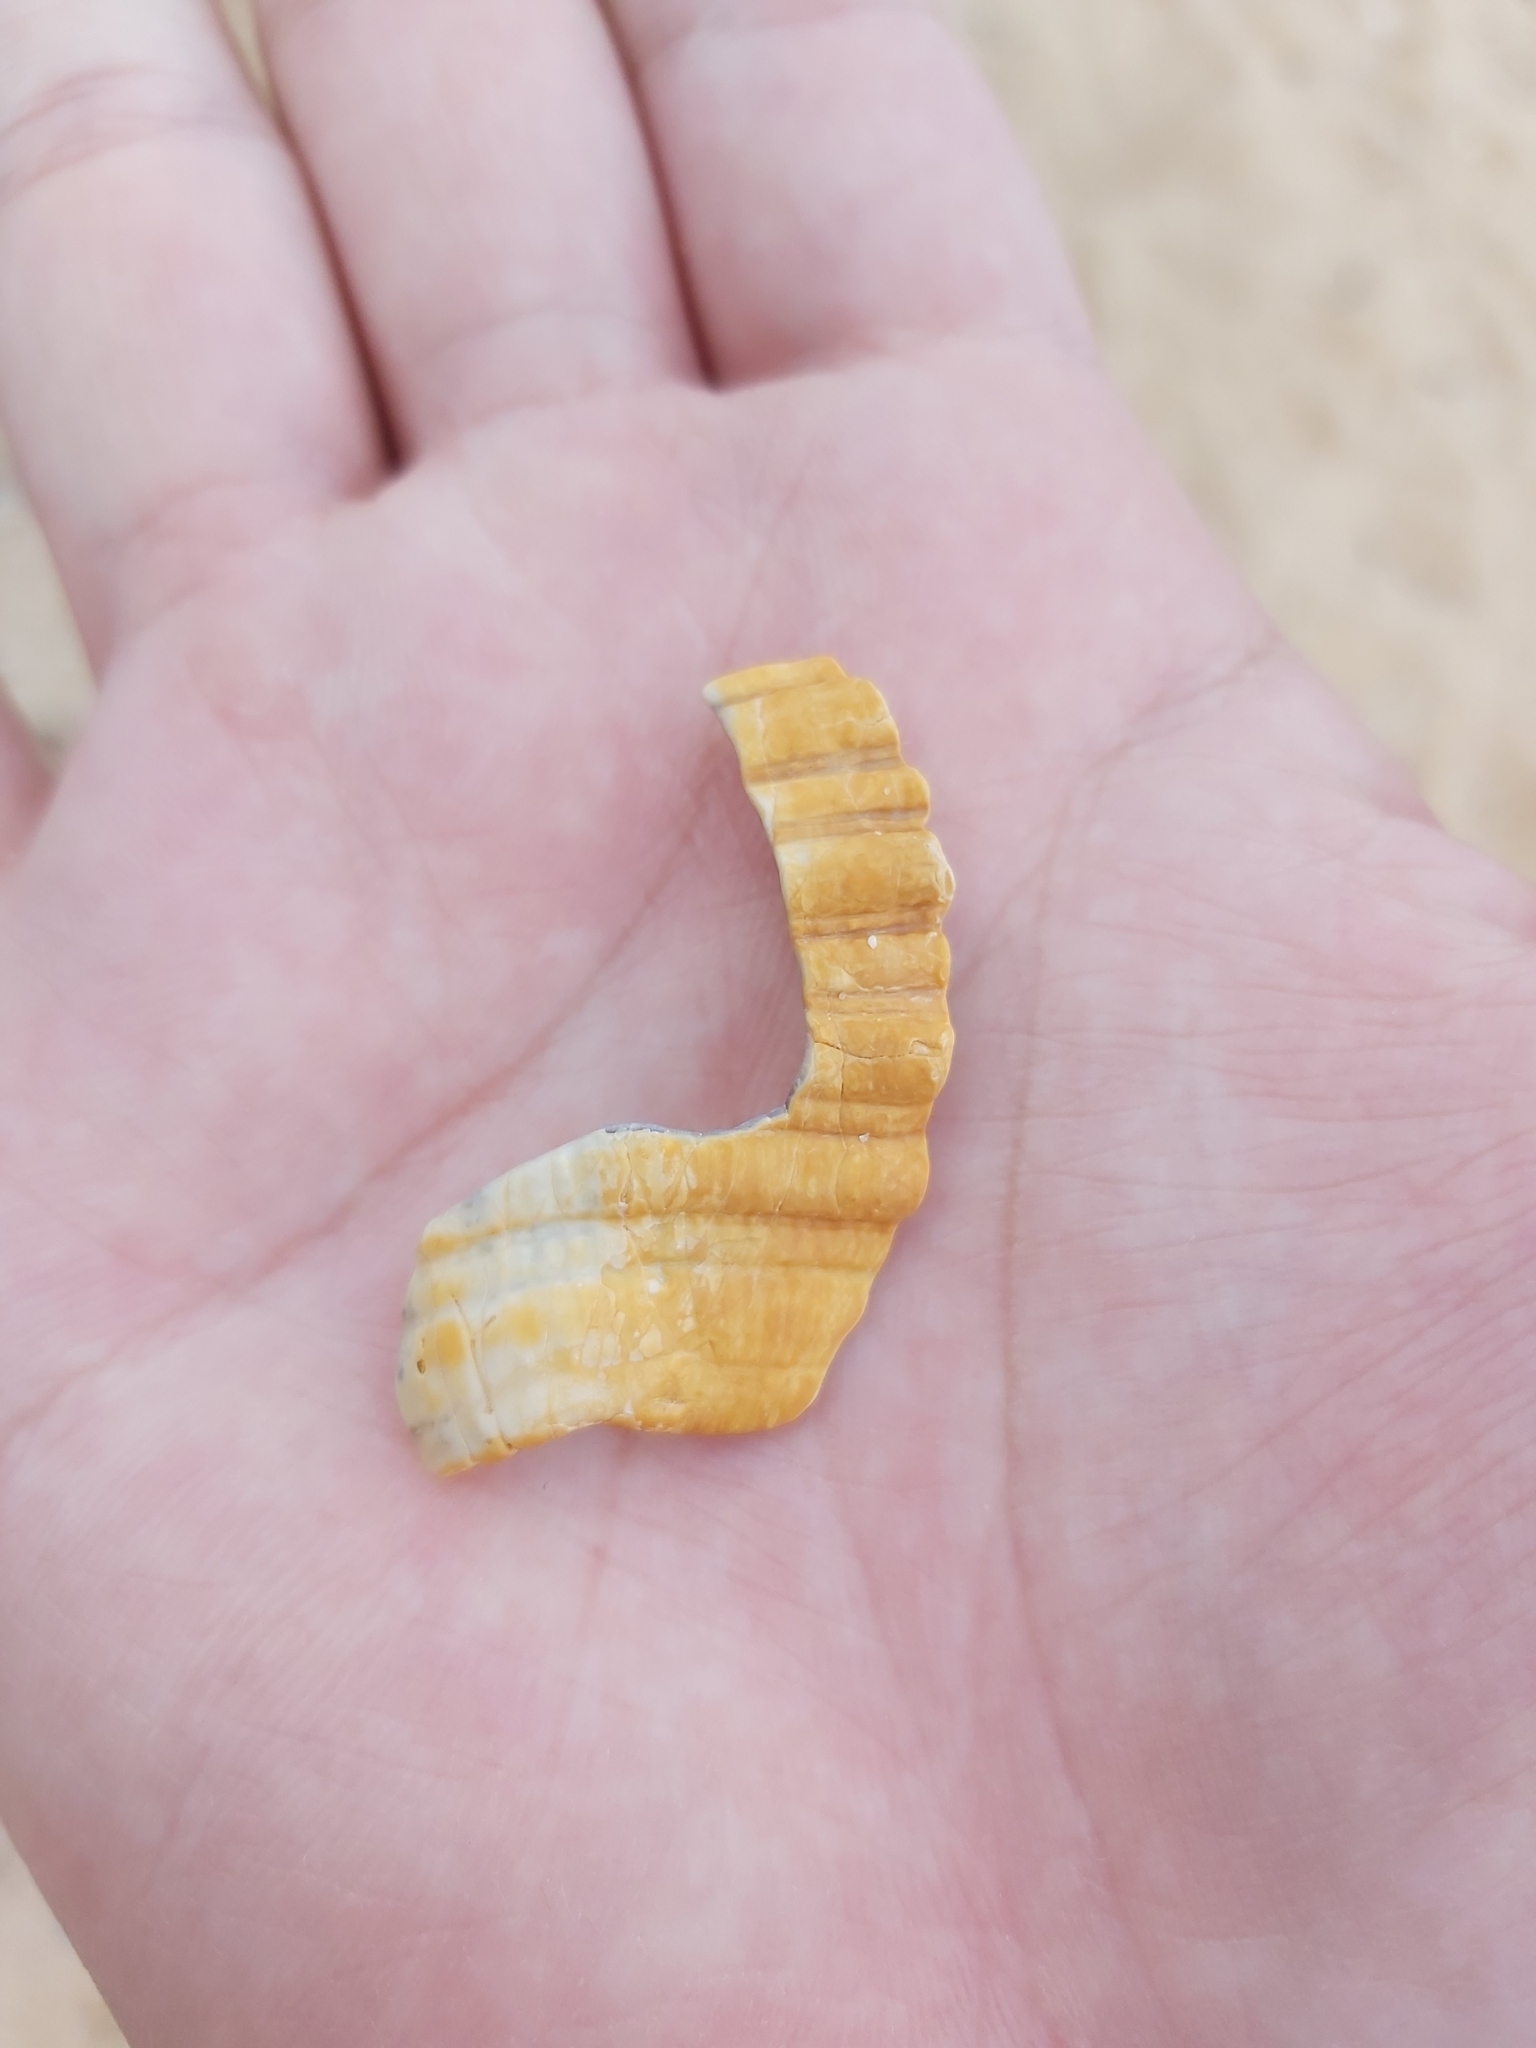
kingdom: Animalia
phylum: Mollusca
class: Gastropoda
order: Littorinimorpha
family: Cymatiidae
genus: Cabestana
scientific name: Cabestana spengleri
